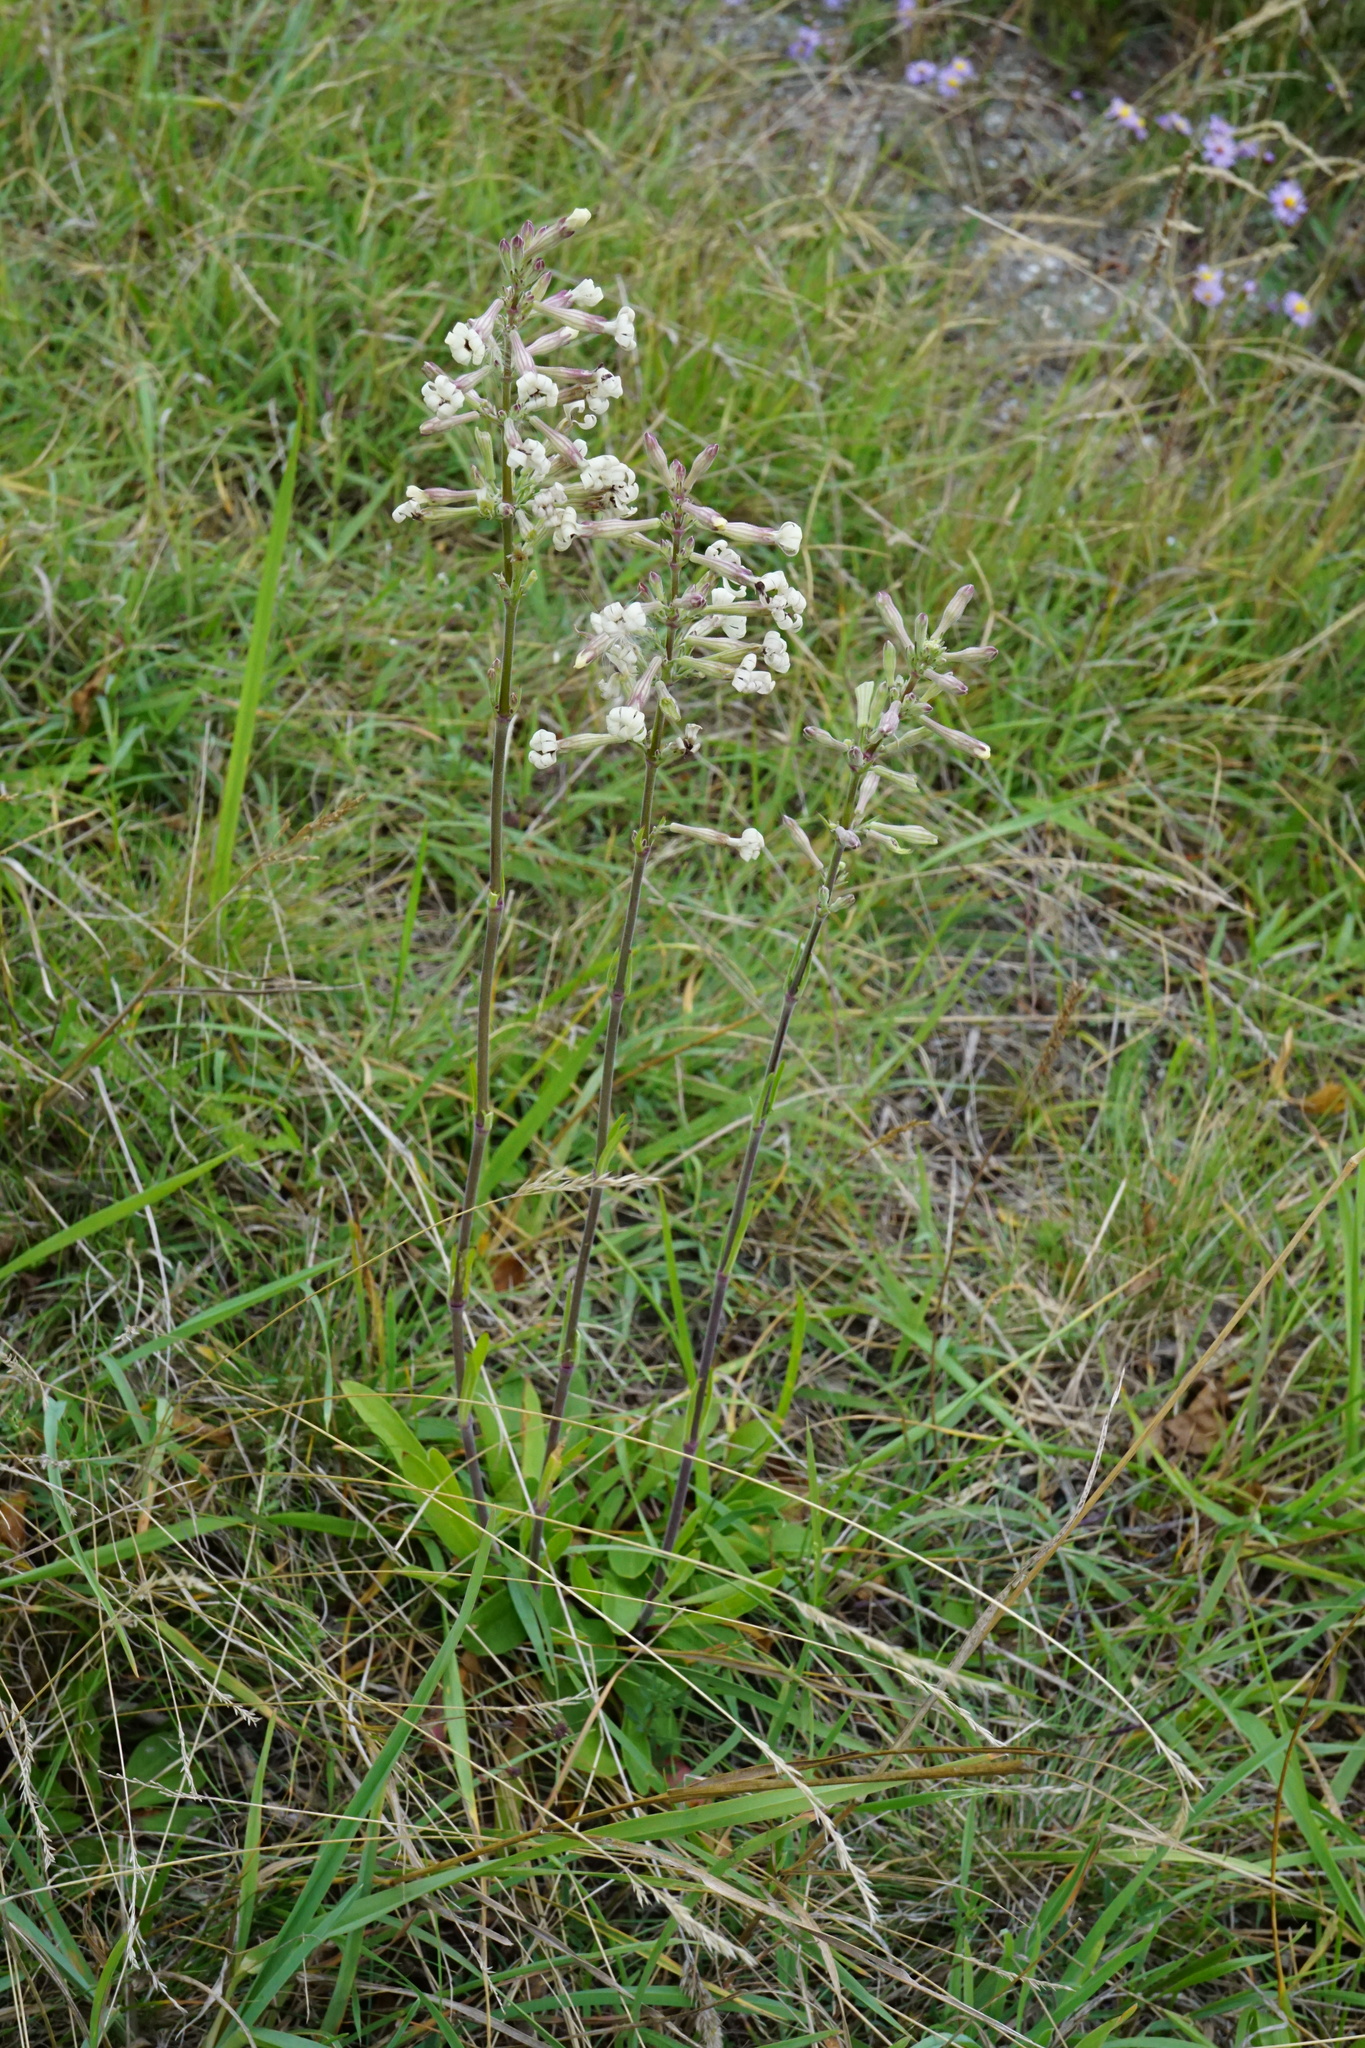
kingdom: Plantae
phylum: Tracheophyta
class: Magnoliopsida
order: Caryophyllales
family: Caryophyllaceae
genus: Silene
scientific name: Silene multiflora
